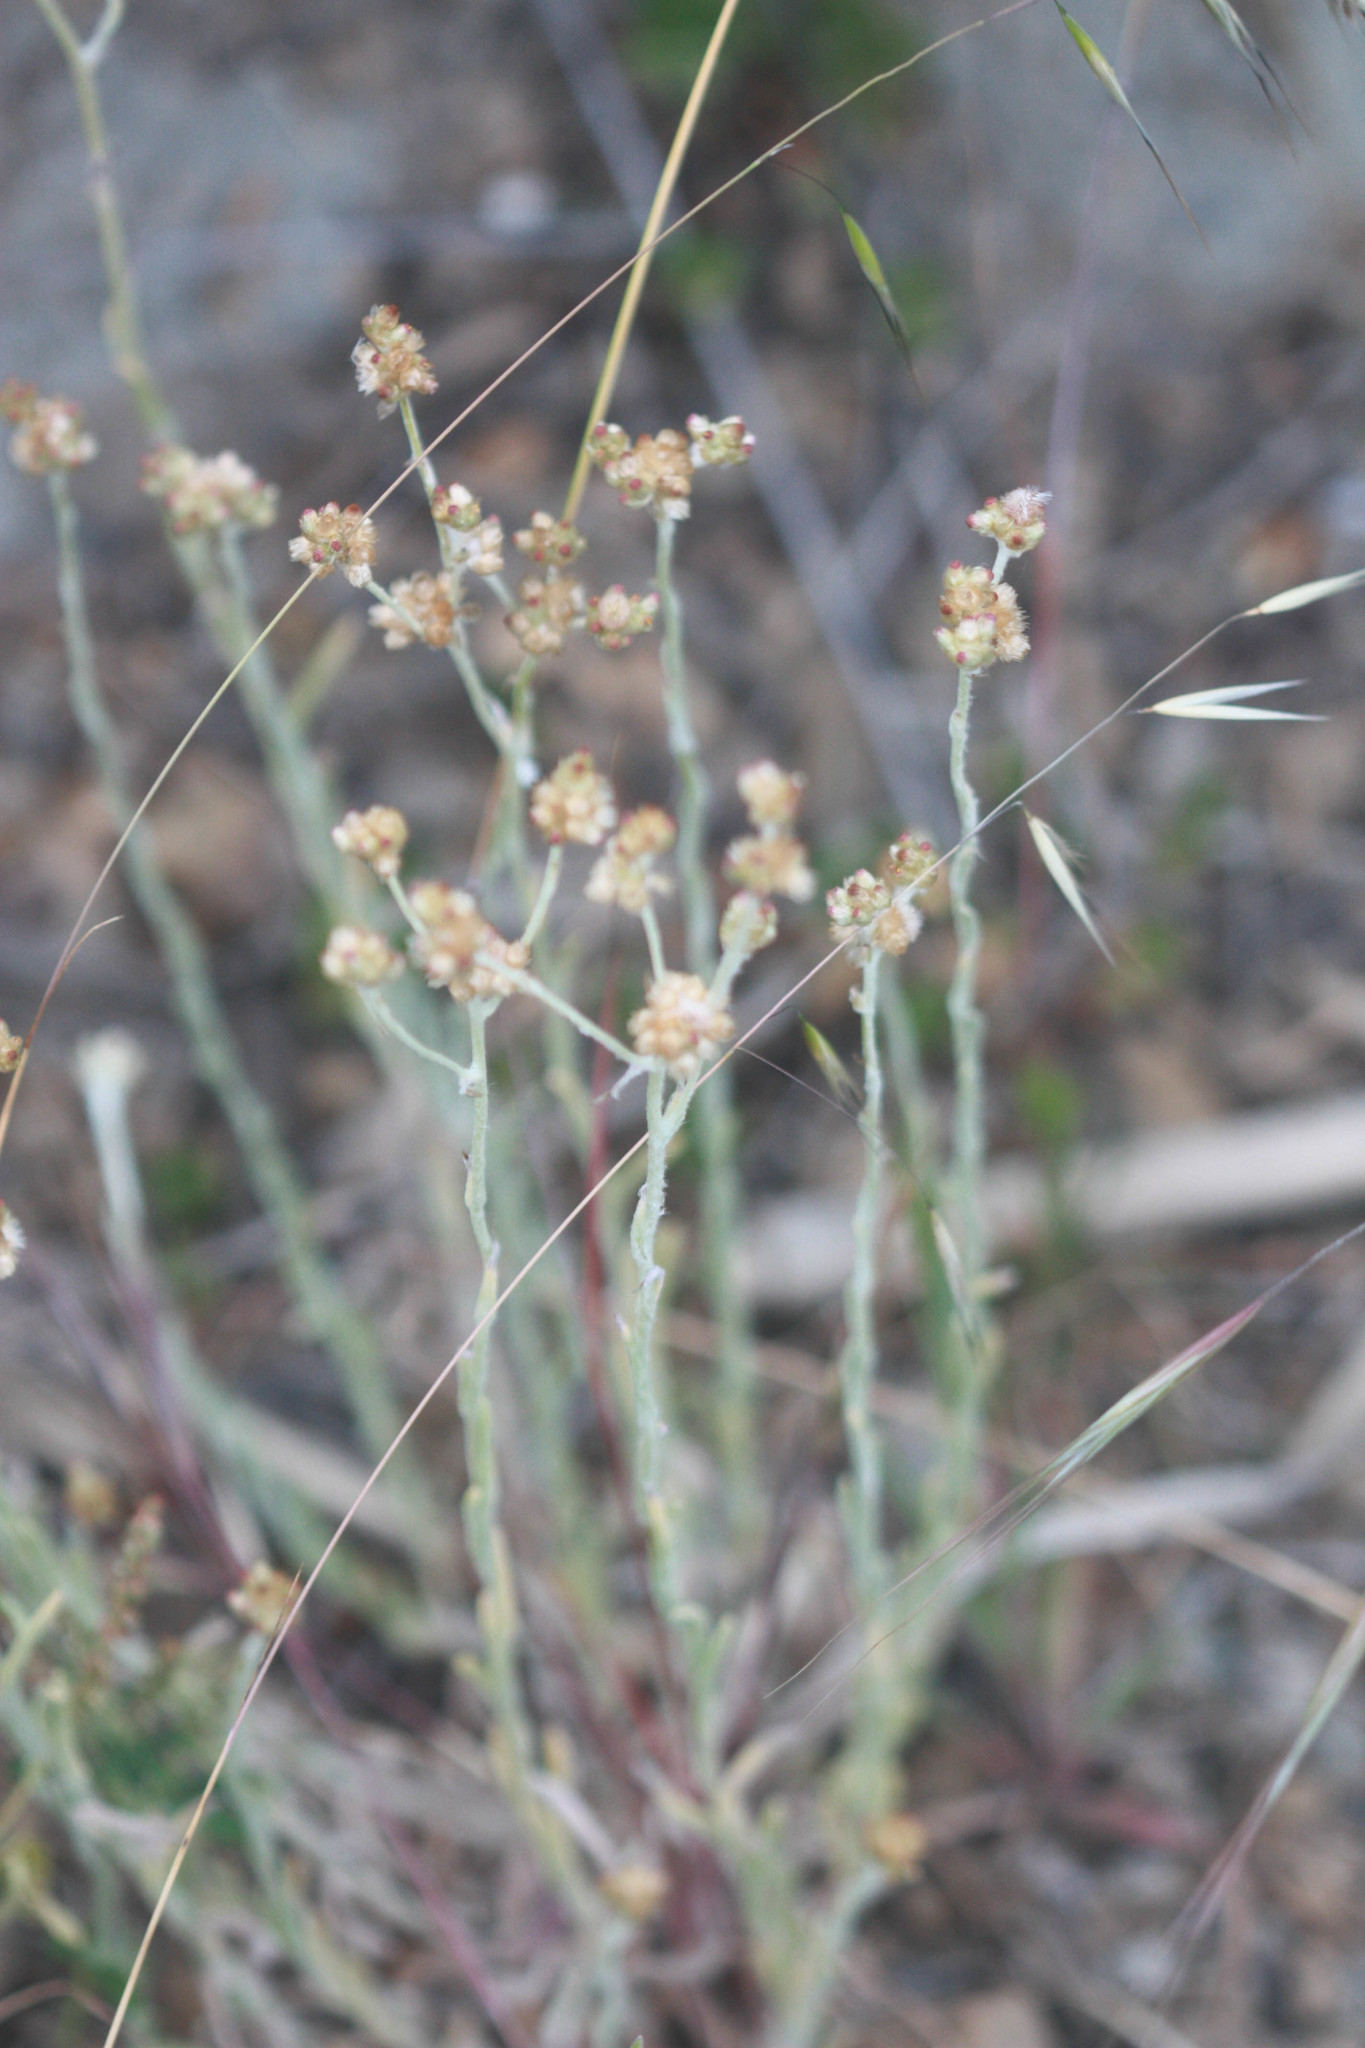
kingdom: Plantae
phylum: Tracheophyta
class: Magnoliopsida
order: Asterales
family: Asteraceae
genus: Helichrysum
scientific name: Helichrysum luteoalbum
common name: Daisy
